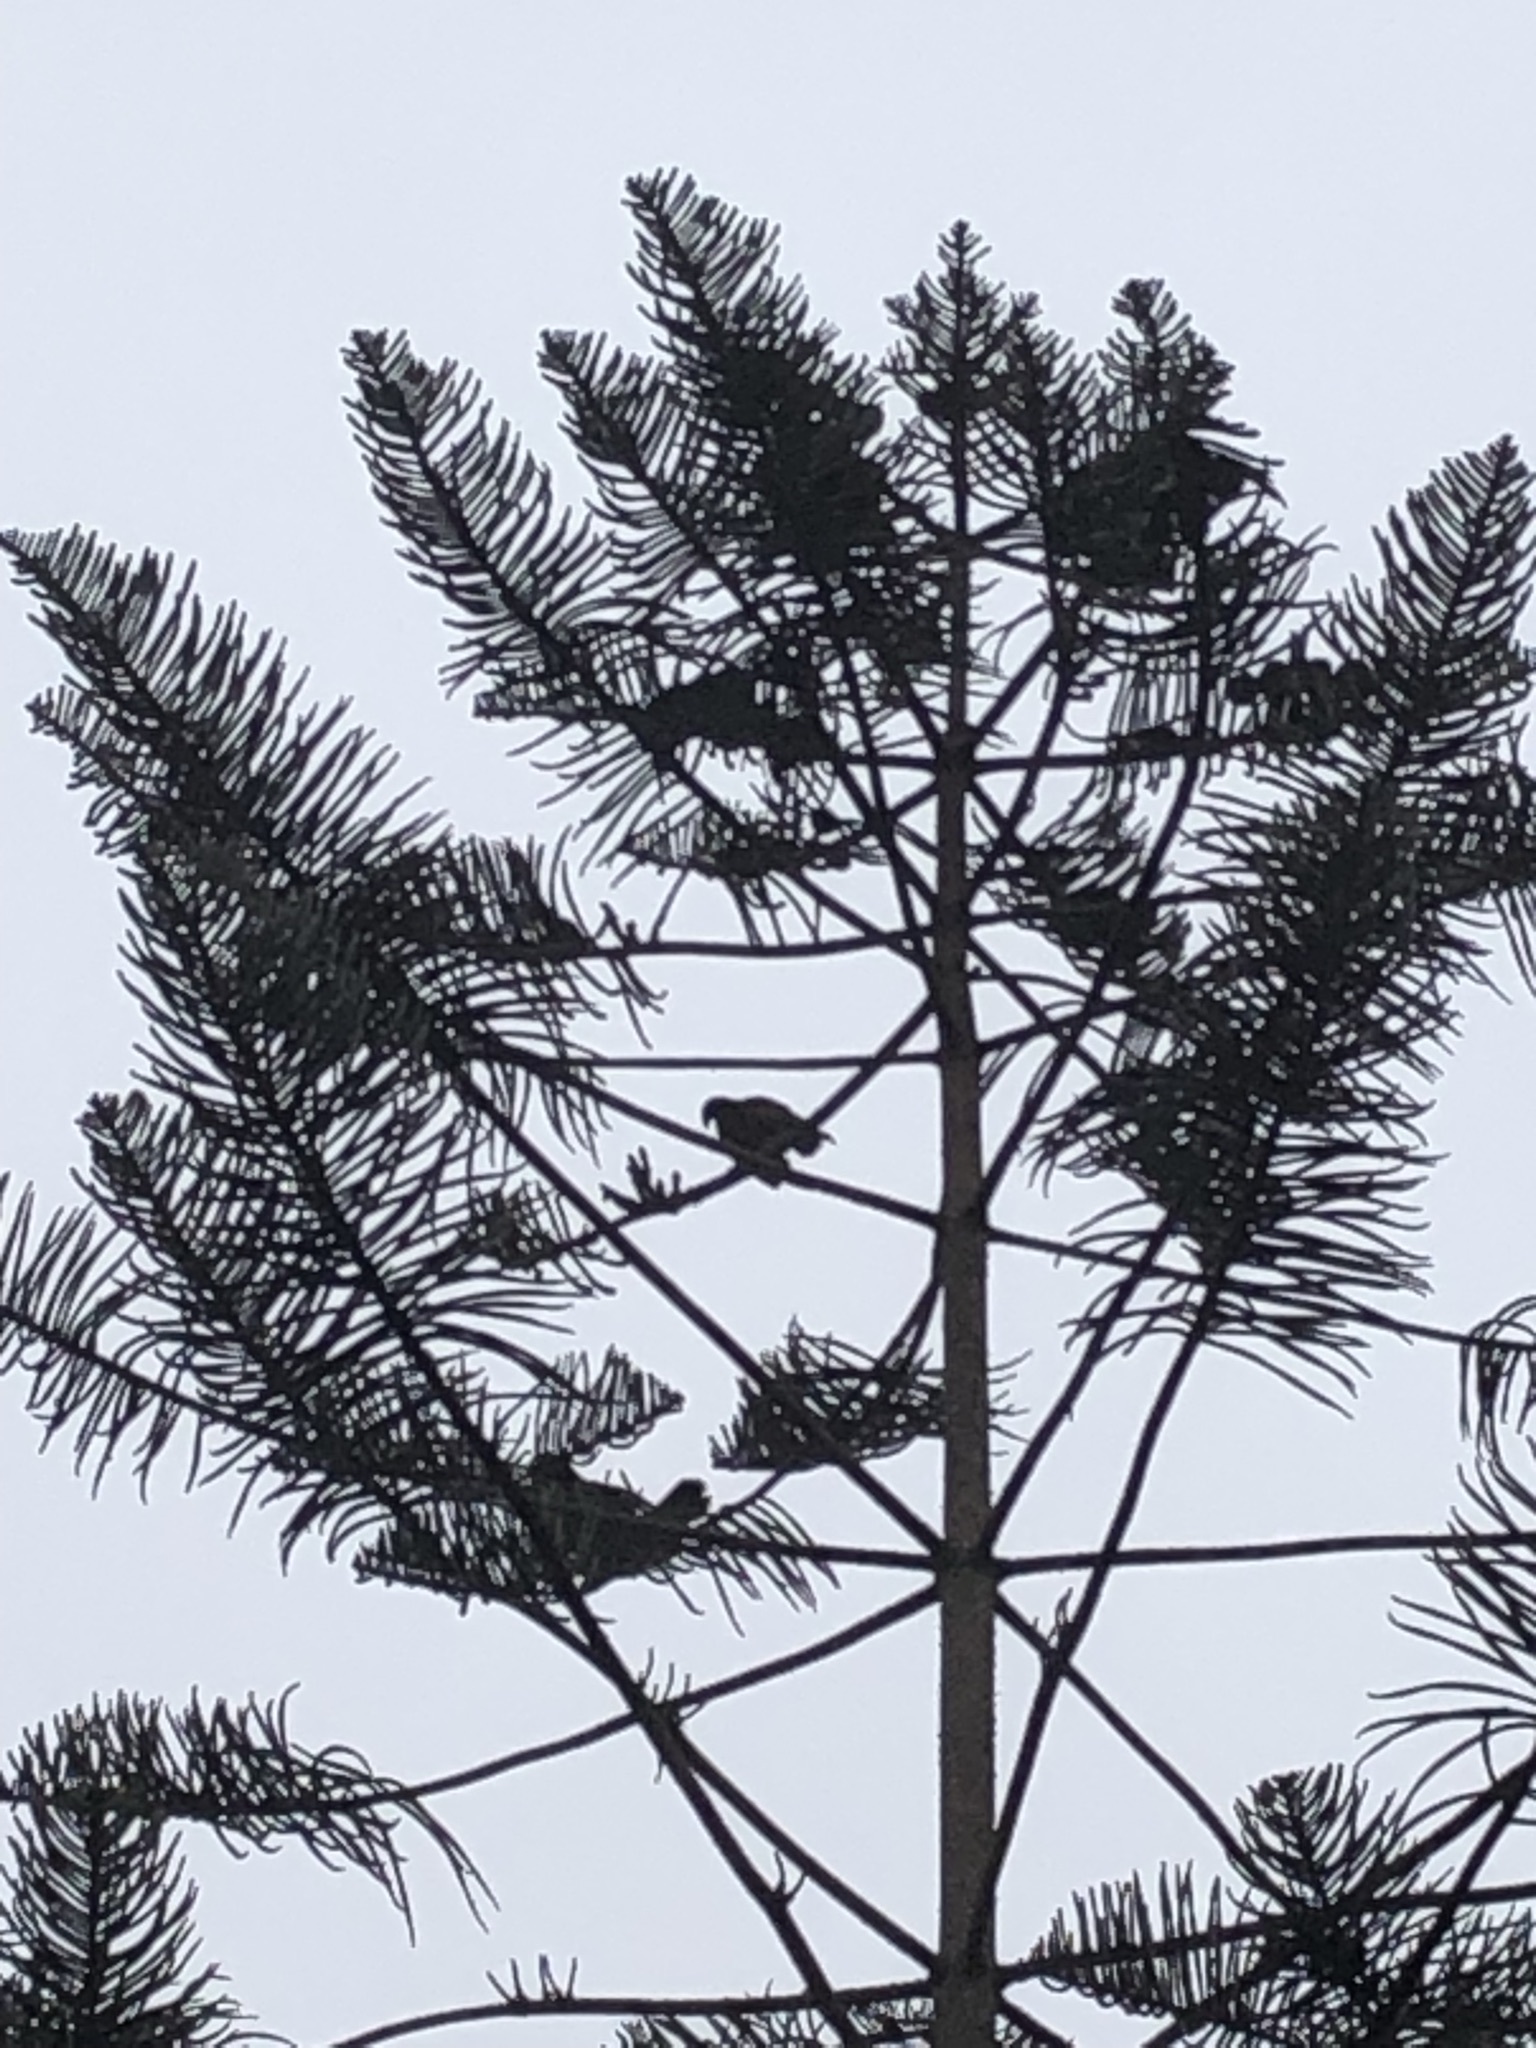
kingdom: Animalia
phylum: Chordata
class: Aves
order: Accipitriformes
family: Accipitridae
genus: Parabuteo
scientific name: Parabuteo unicinctus
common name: Harris's hawk
